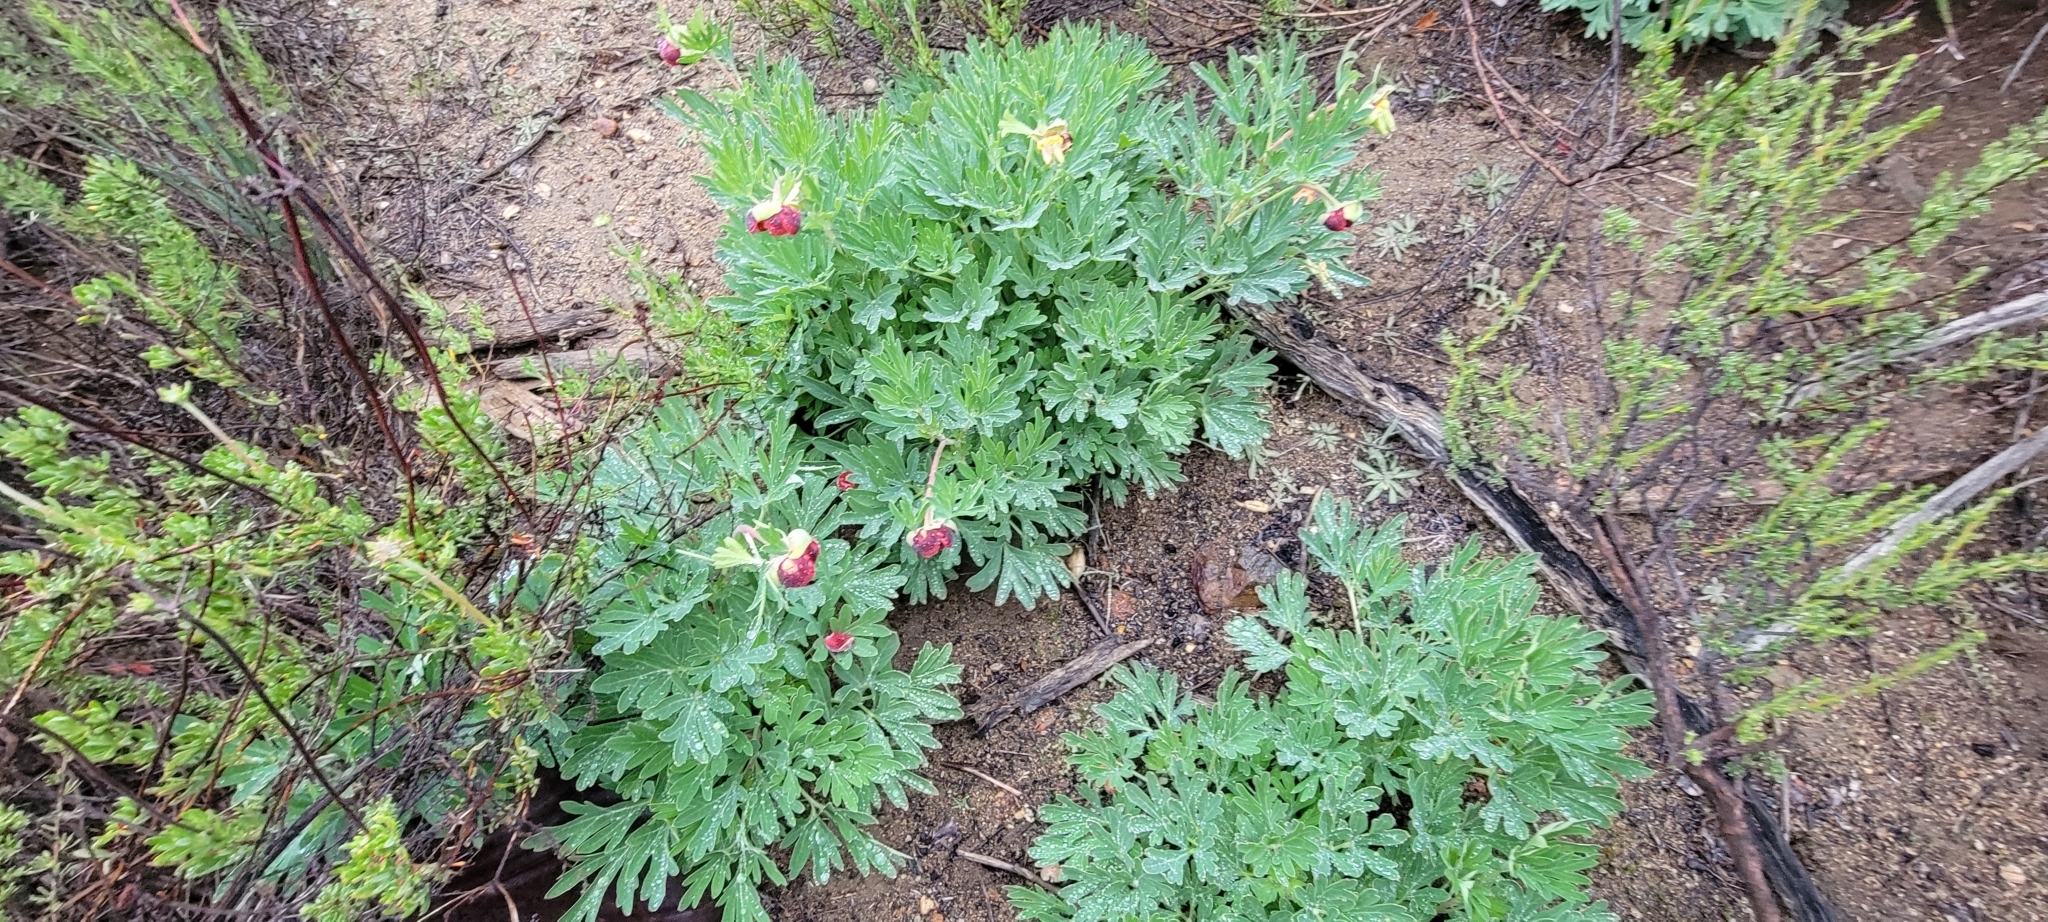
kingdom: Plantae
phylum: Tracheophyta
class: Magnoliopsida
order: Saxifragales
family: Paeoniaceae
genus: Paeonia
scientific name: Paeonia californica
